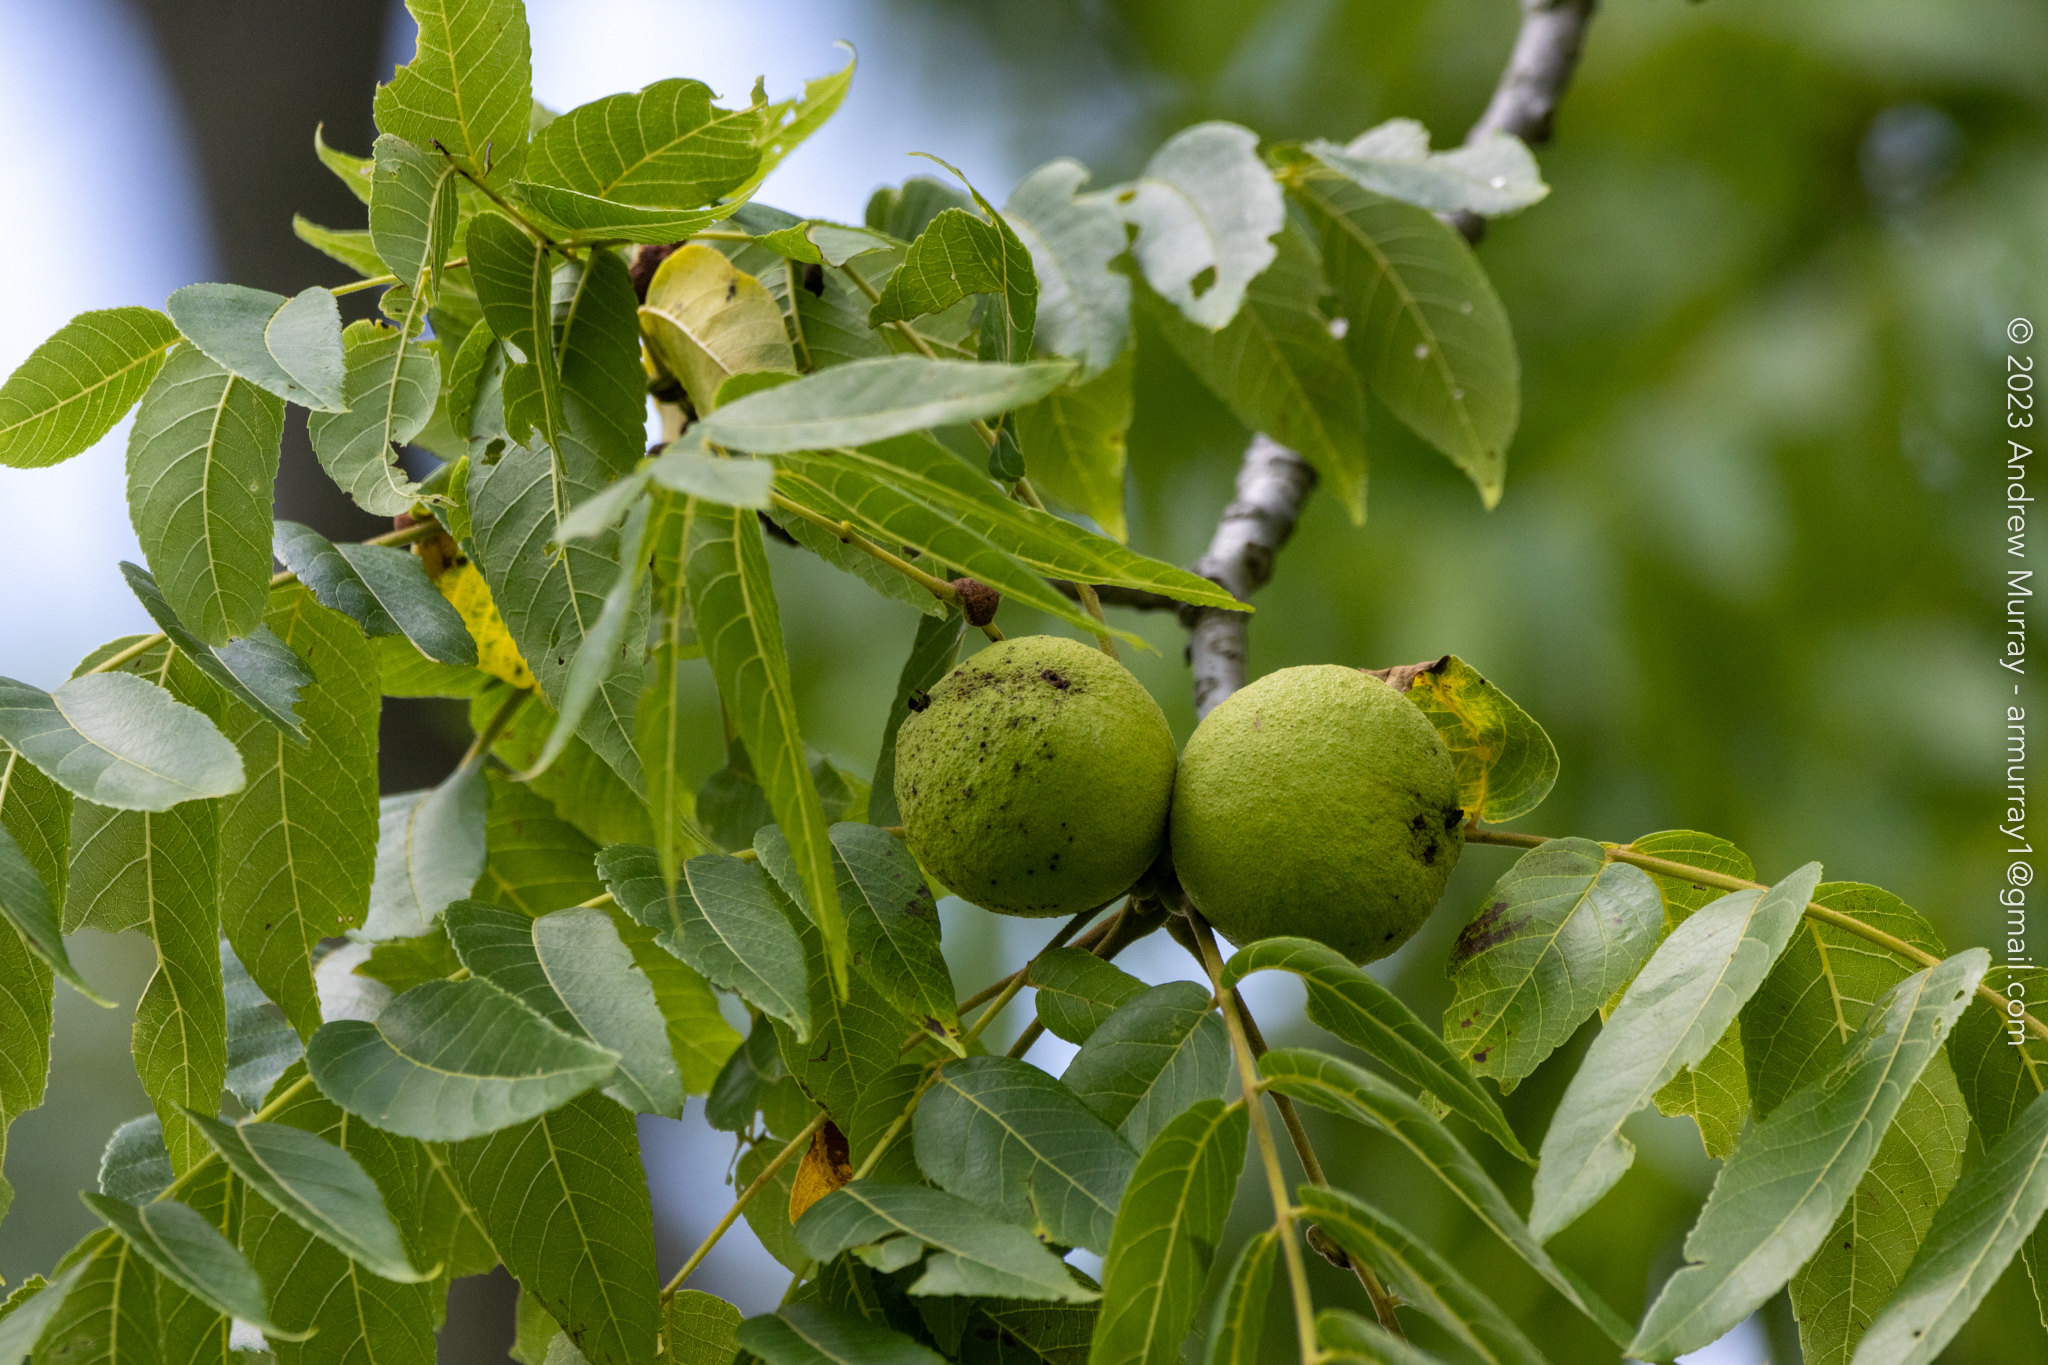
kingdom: Plantae
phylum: Tracheophyta
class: Magnoliopsida
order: Fagales
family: Juglandaceae
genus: Juglans
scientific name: Juglans nigra
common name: Black walnut
